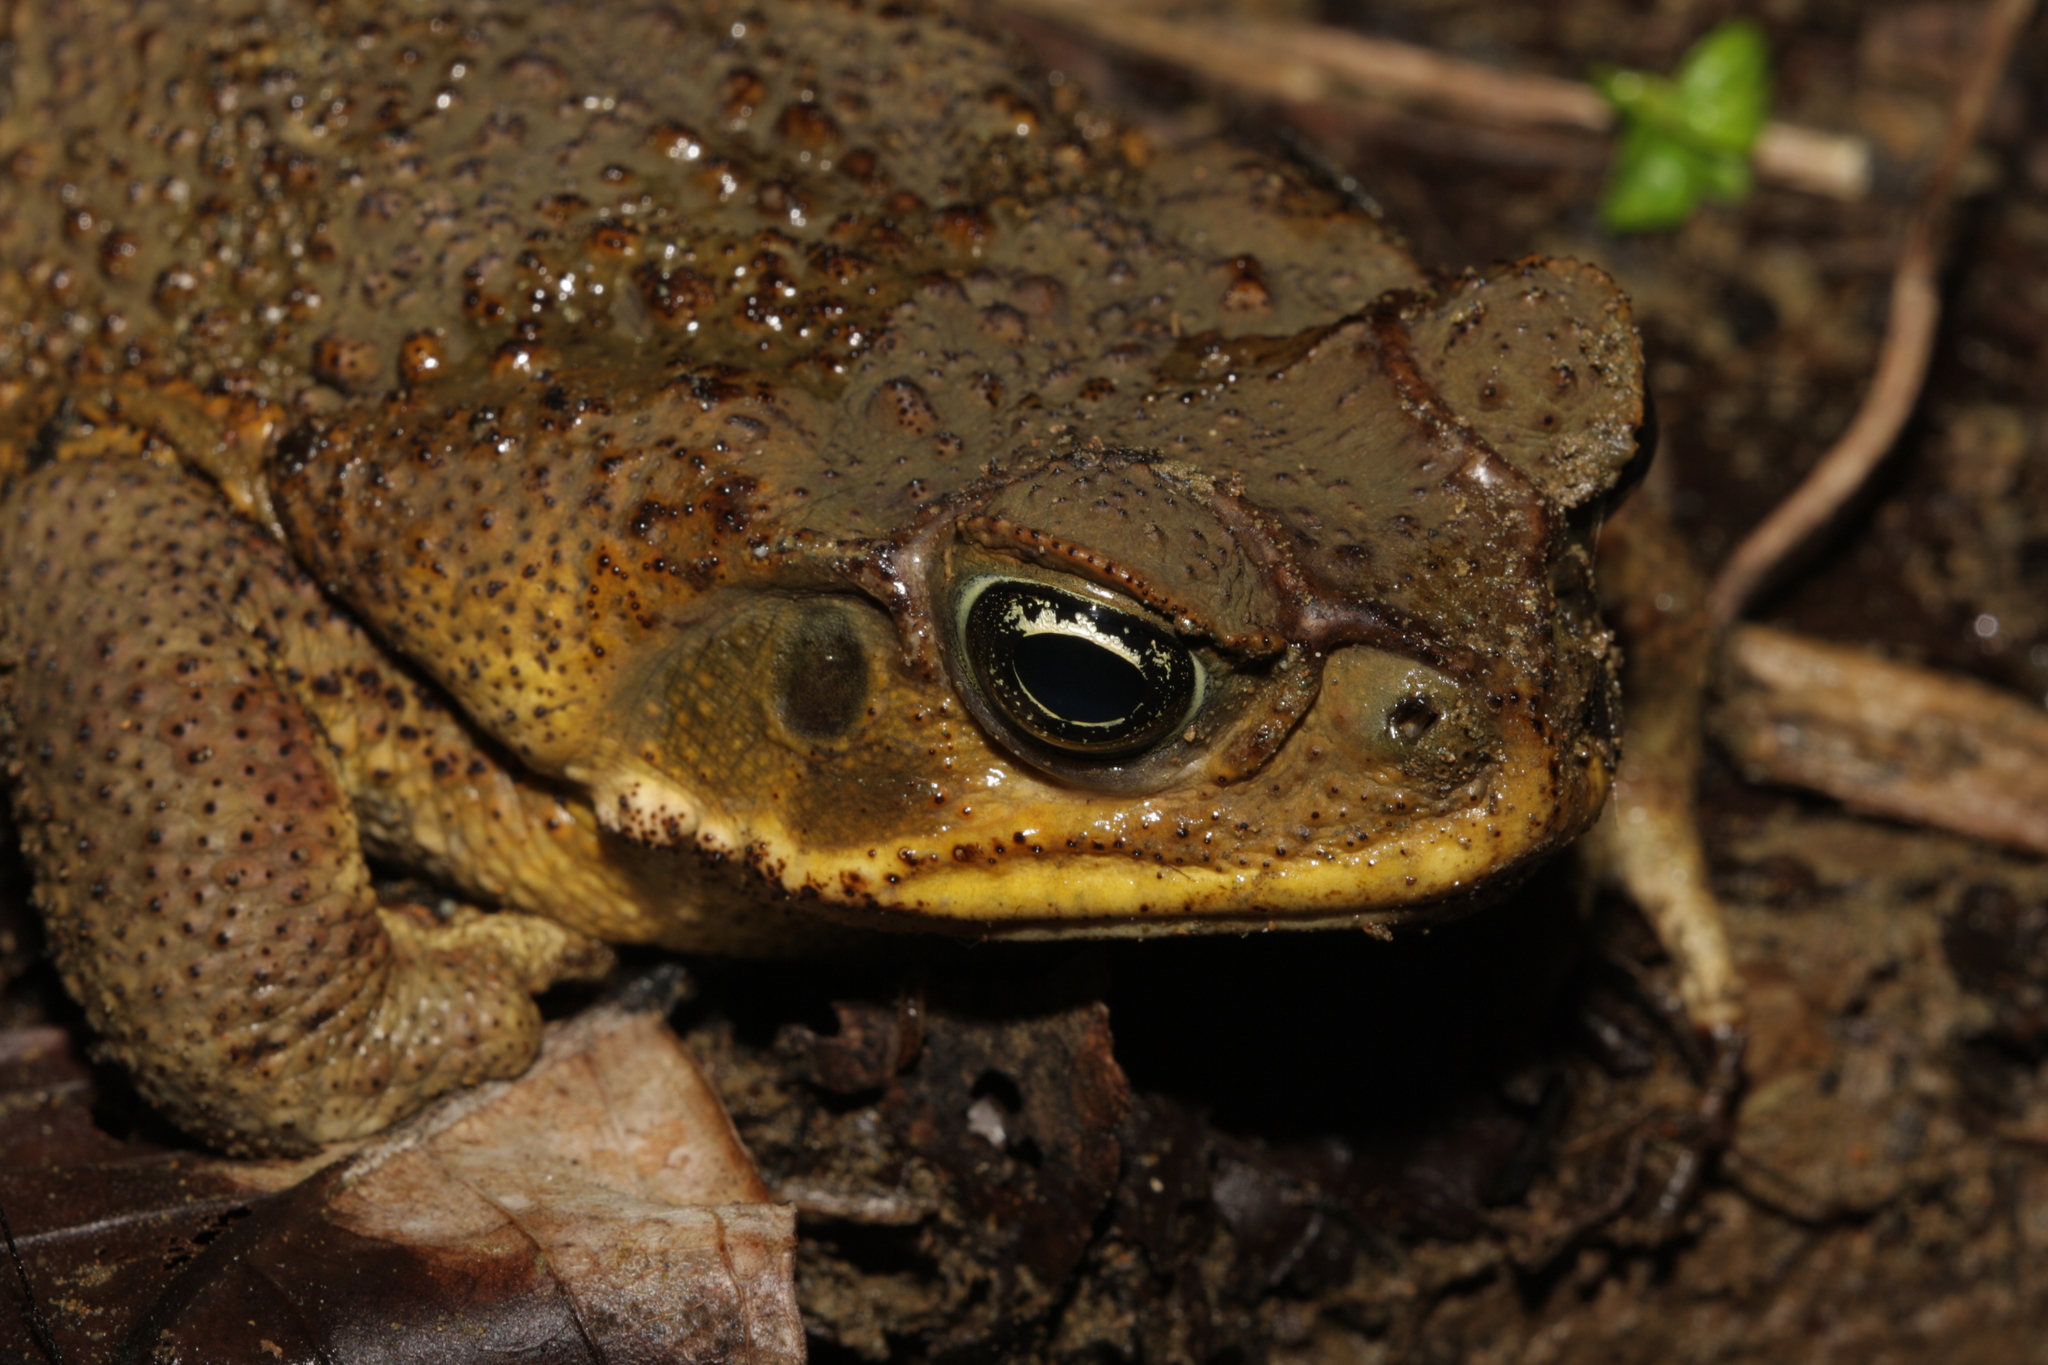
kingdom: Animalia
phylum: Chordata
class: Amphibia
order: Anura
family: Bufonidae
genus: Rhinella
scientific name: Rhinella horribilis
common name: Mesoamerican cane toad
